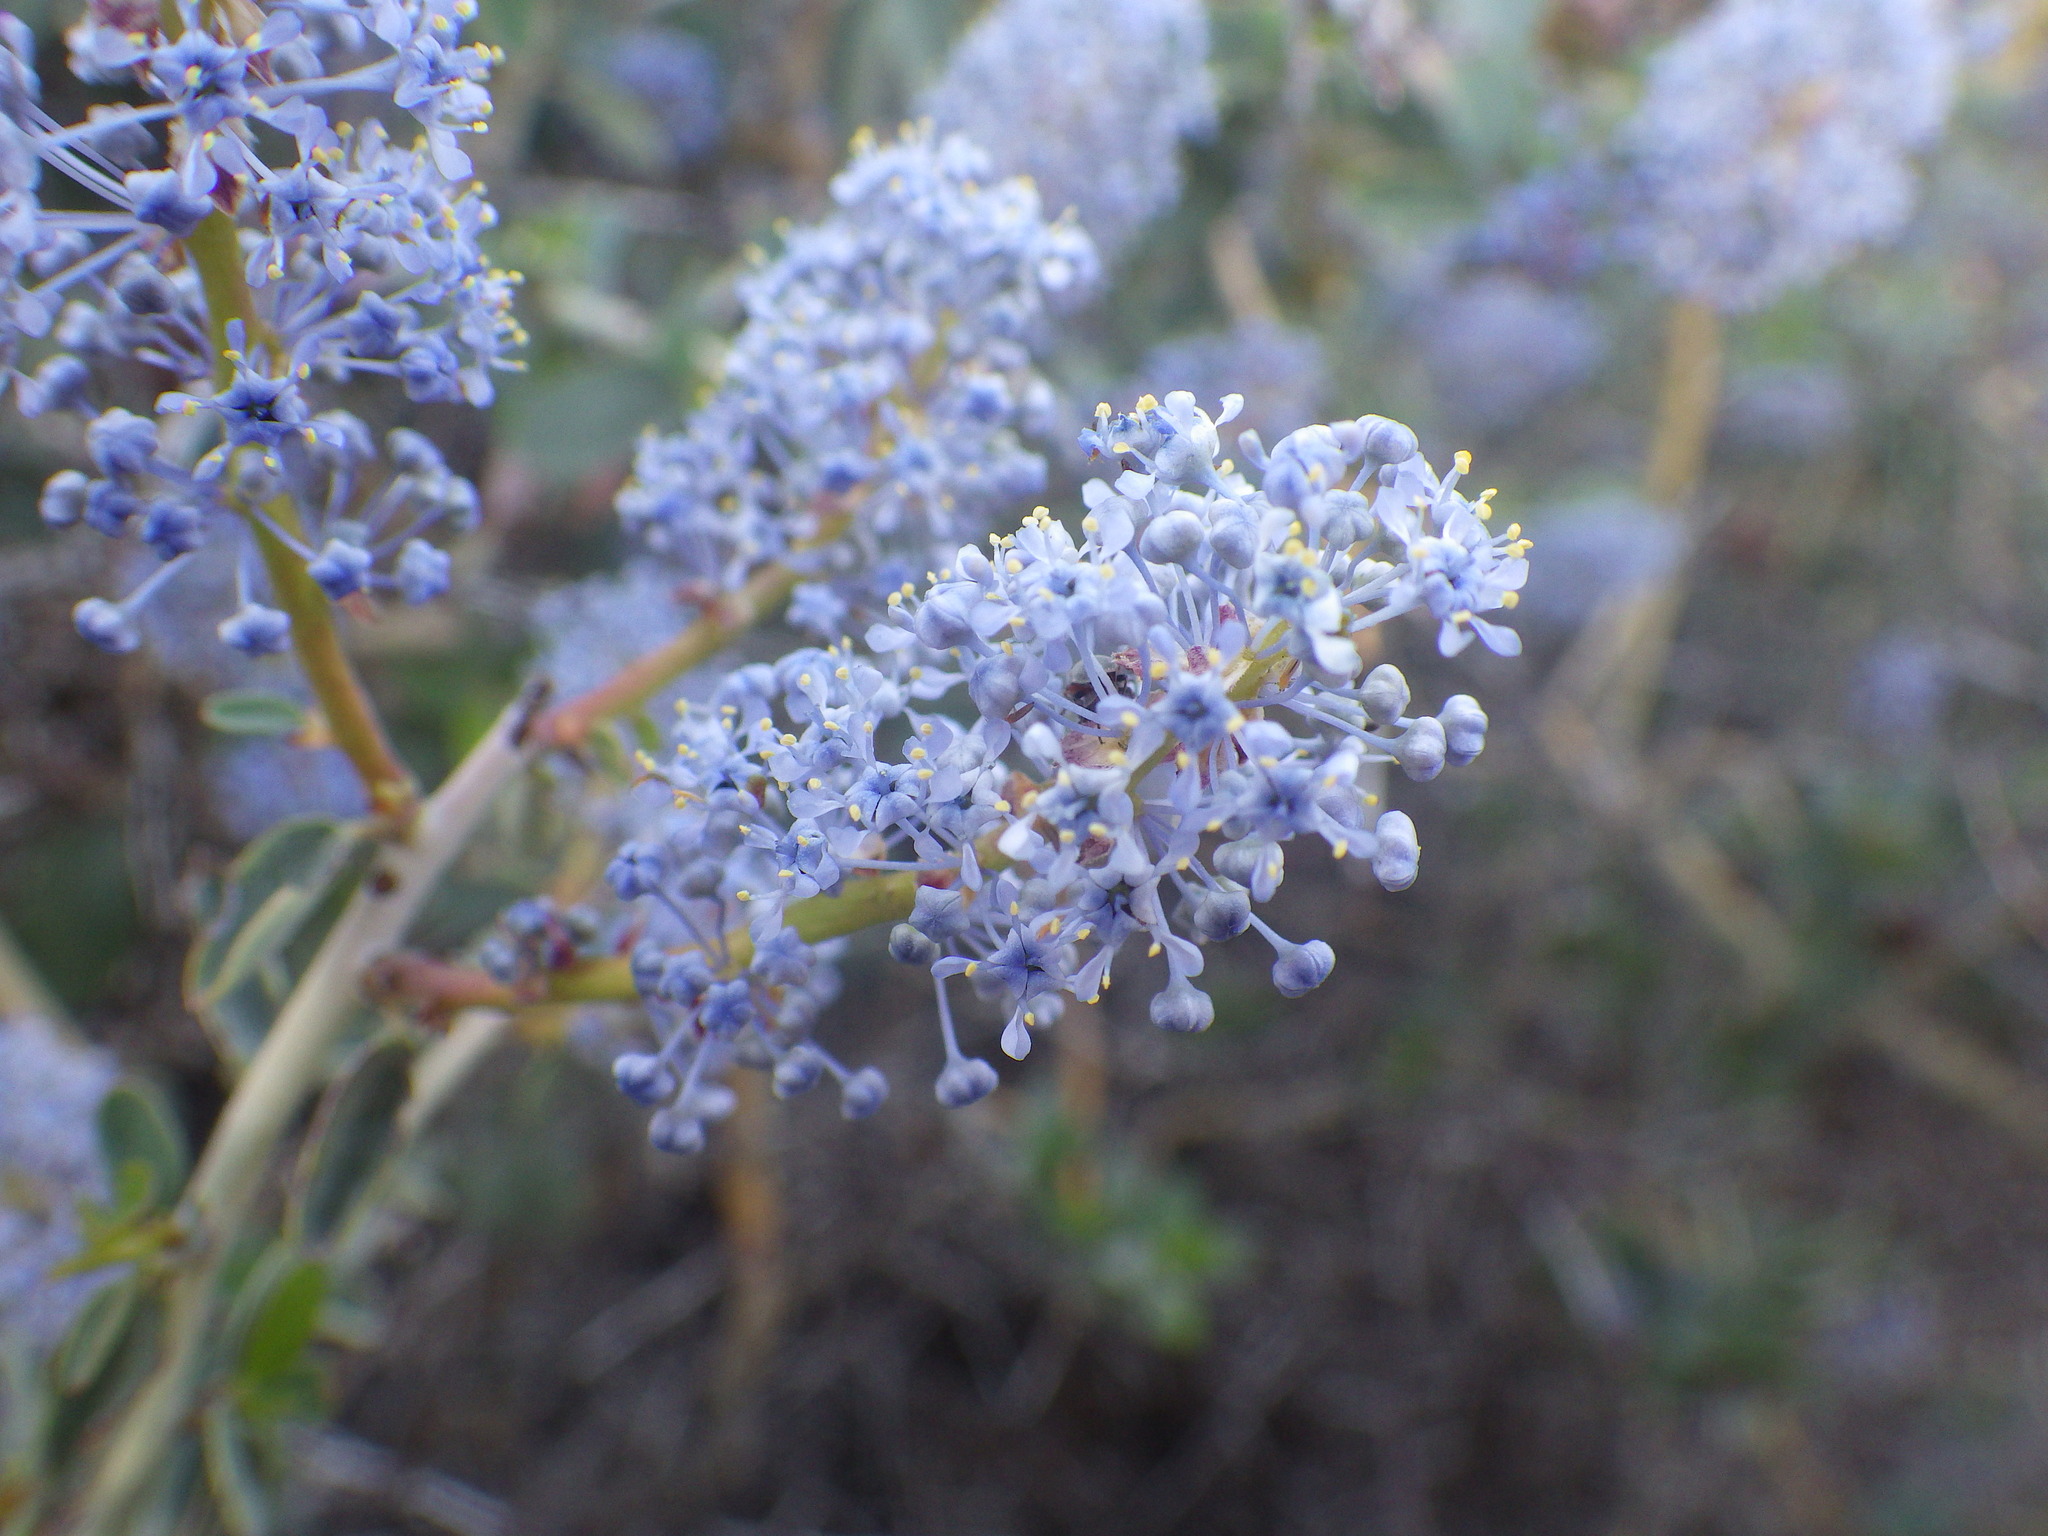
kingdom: Plantae
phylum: Tracheophyta
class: Magnoliopsida
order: Rosales
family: Rhamnaceae
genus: Ceanothus
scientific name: Ceanothus leucodermis
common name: Chaparral whitethorn
